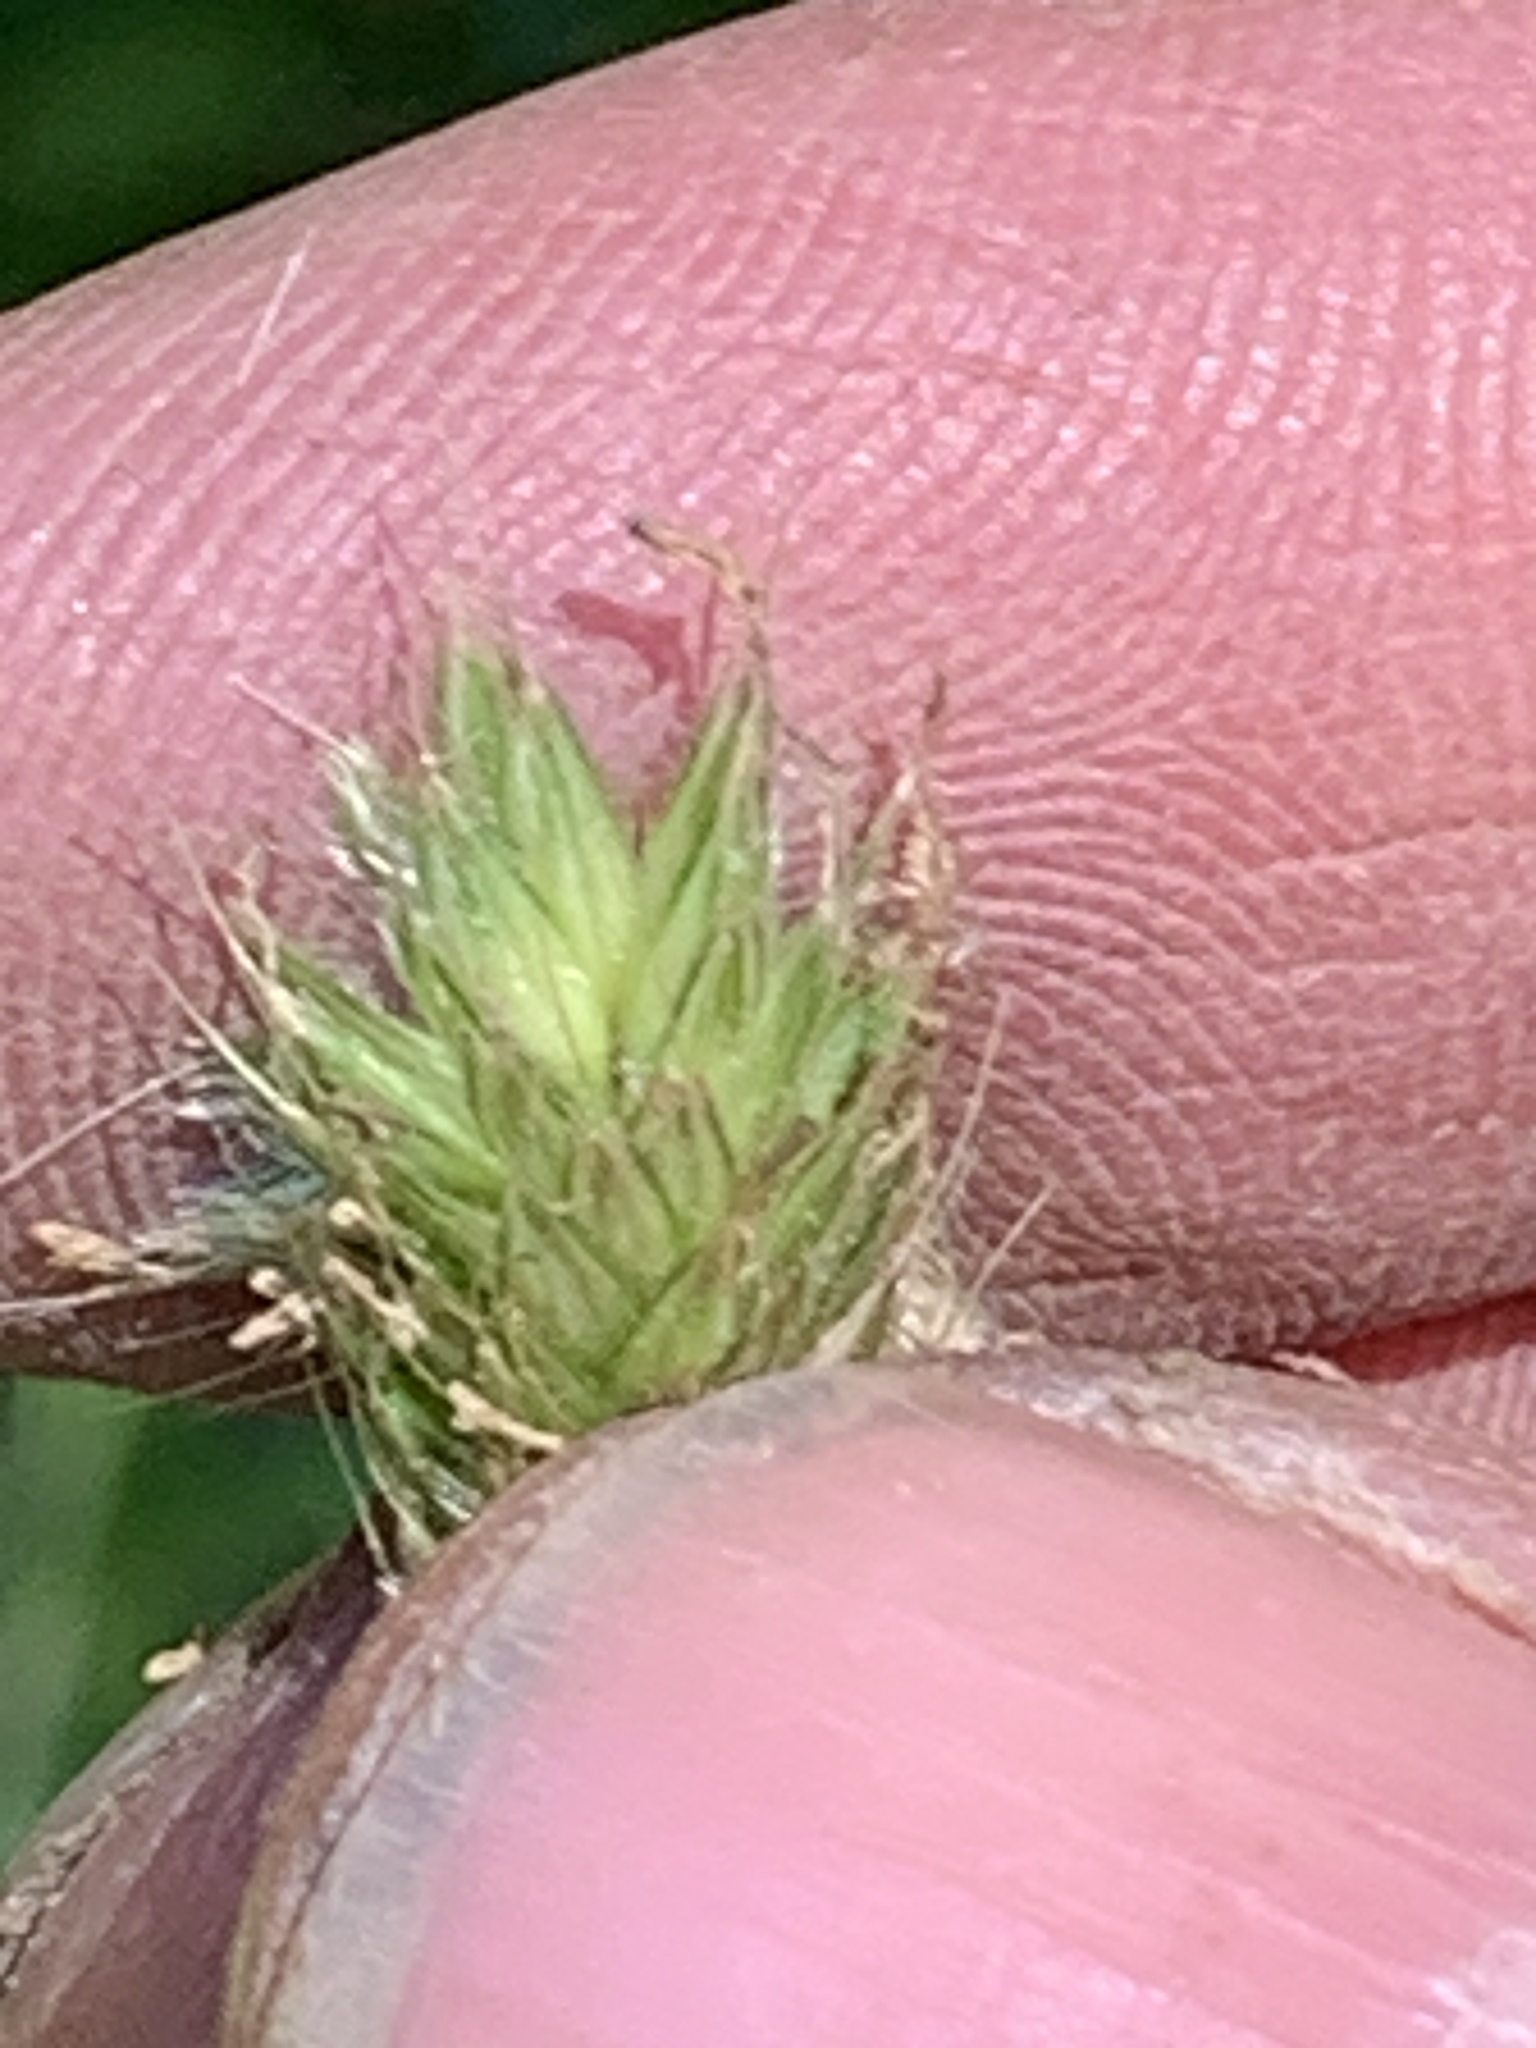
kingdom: Plantae
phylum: Tracheophyta
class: Liliopsida
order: Poales
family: Poaceae
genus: Alopecurus
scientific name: Alopecurus pratensis
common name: Meadow foxtail
